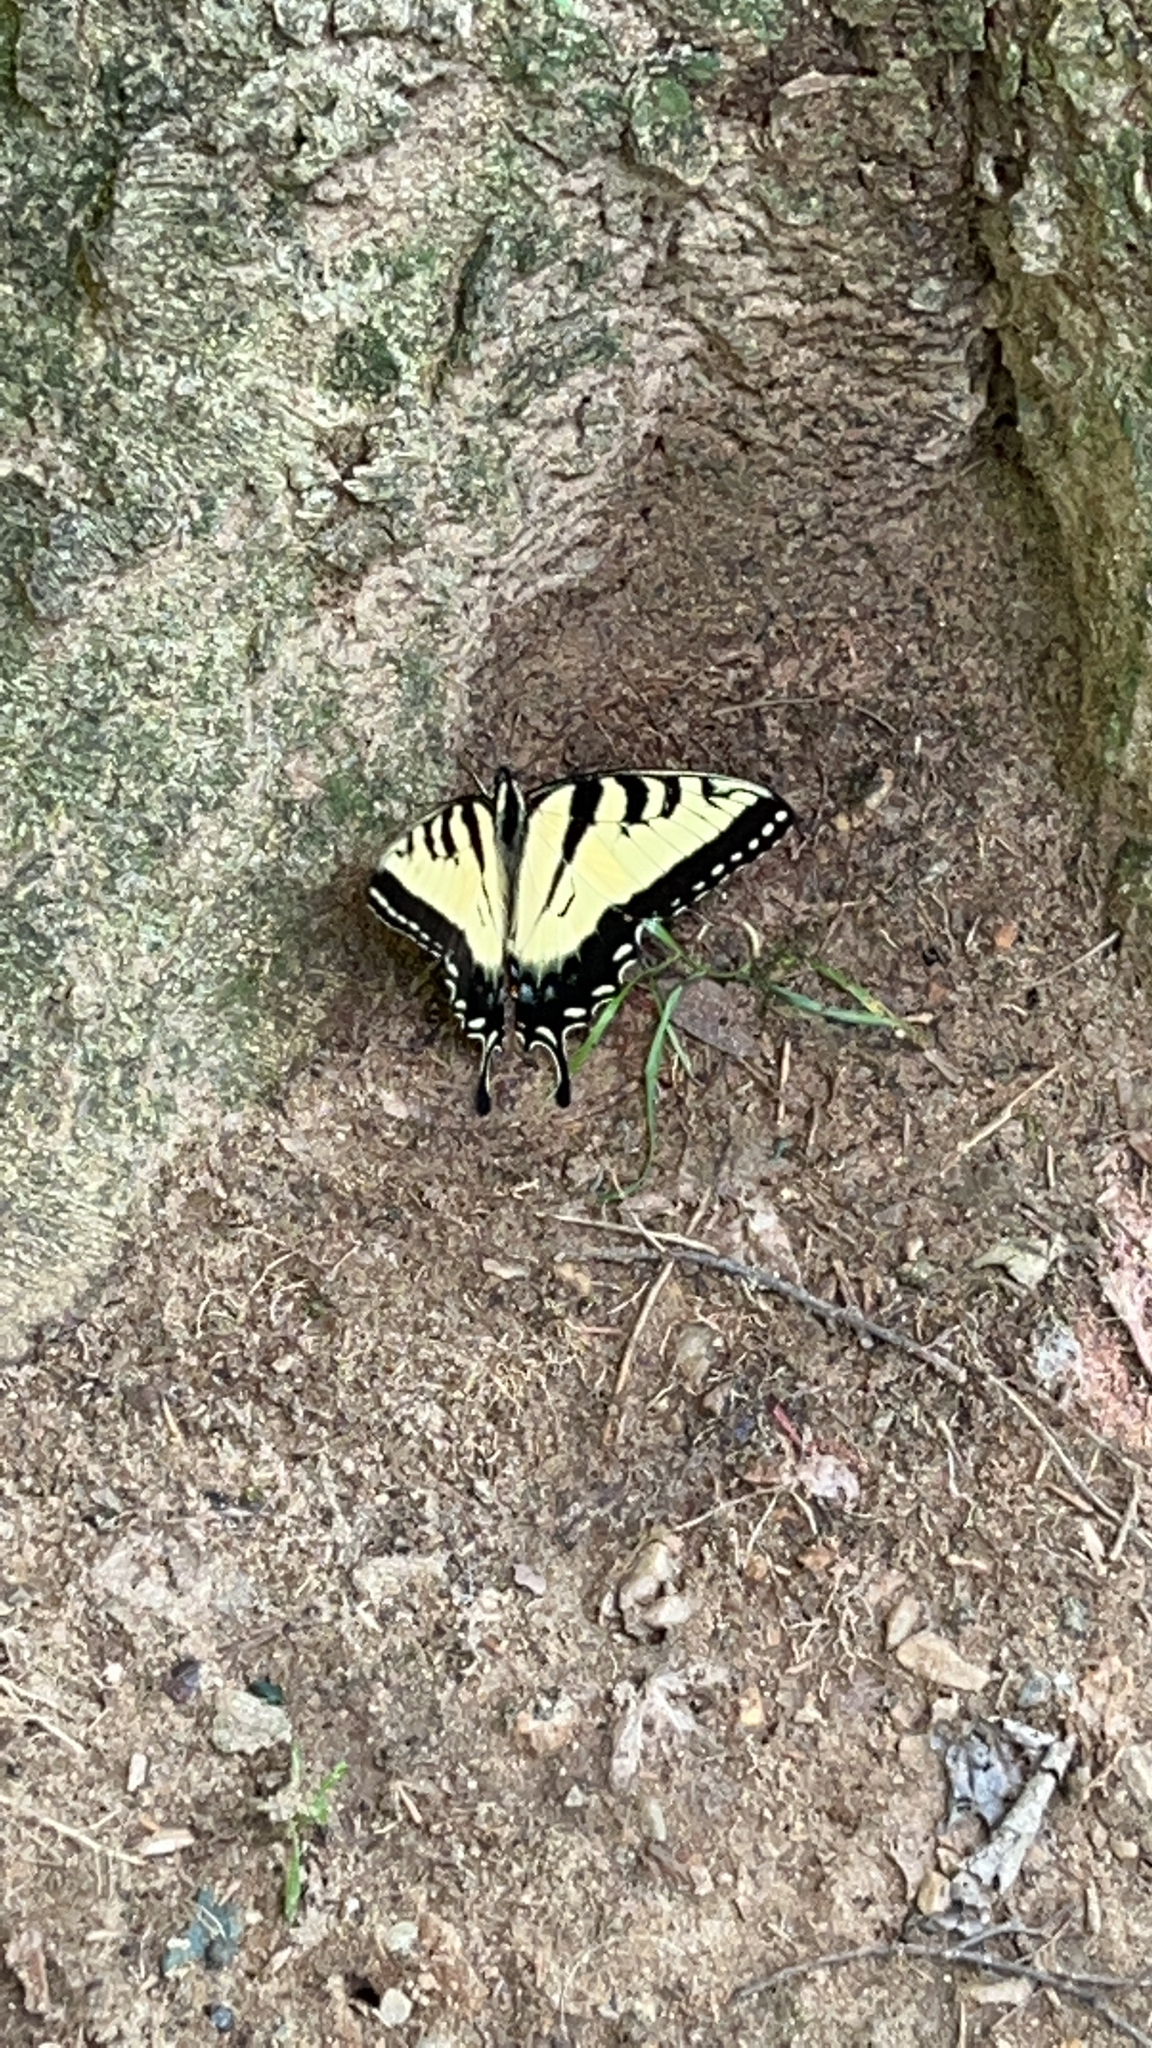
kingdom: Animalia
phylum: Arthropoda
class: Insecta
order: Lepidoptera
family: Papilionidae
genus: Papilio
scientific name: Papilio glaucus
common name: Tiger swallowtail
